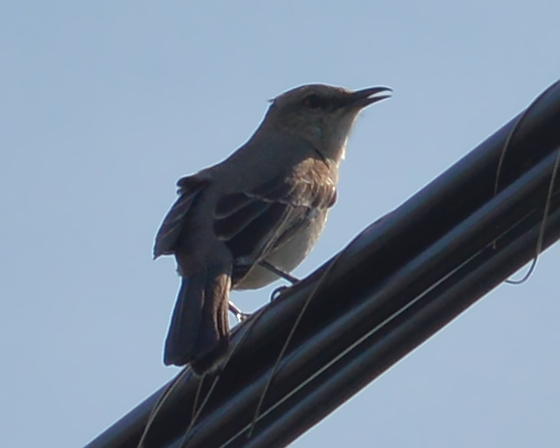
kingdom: Animalia
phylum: Chordata
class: Aves
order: Passeriformes
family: Mimidae
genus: Mimus
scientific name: Mimus polyglottos
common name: Northern mockingbird
